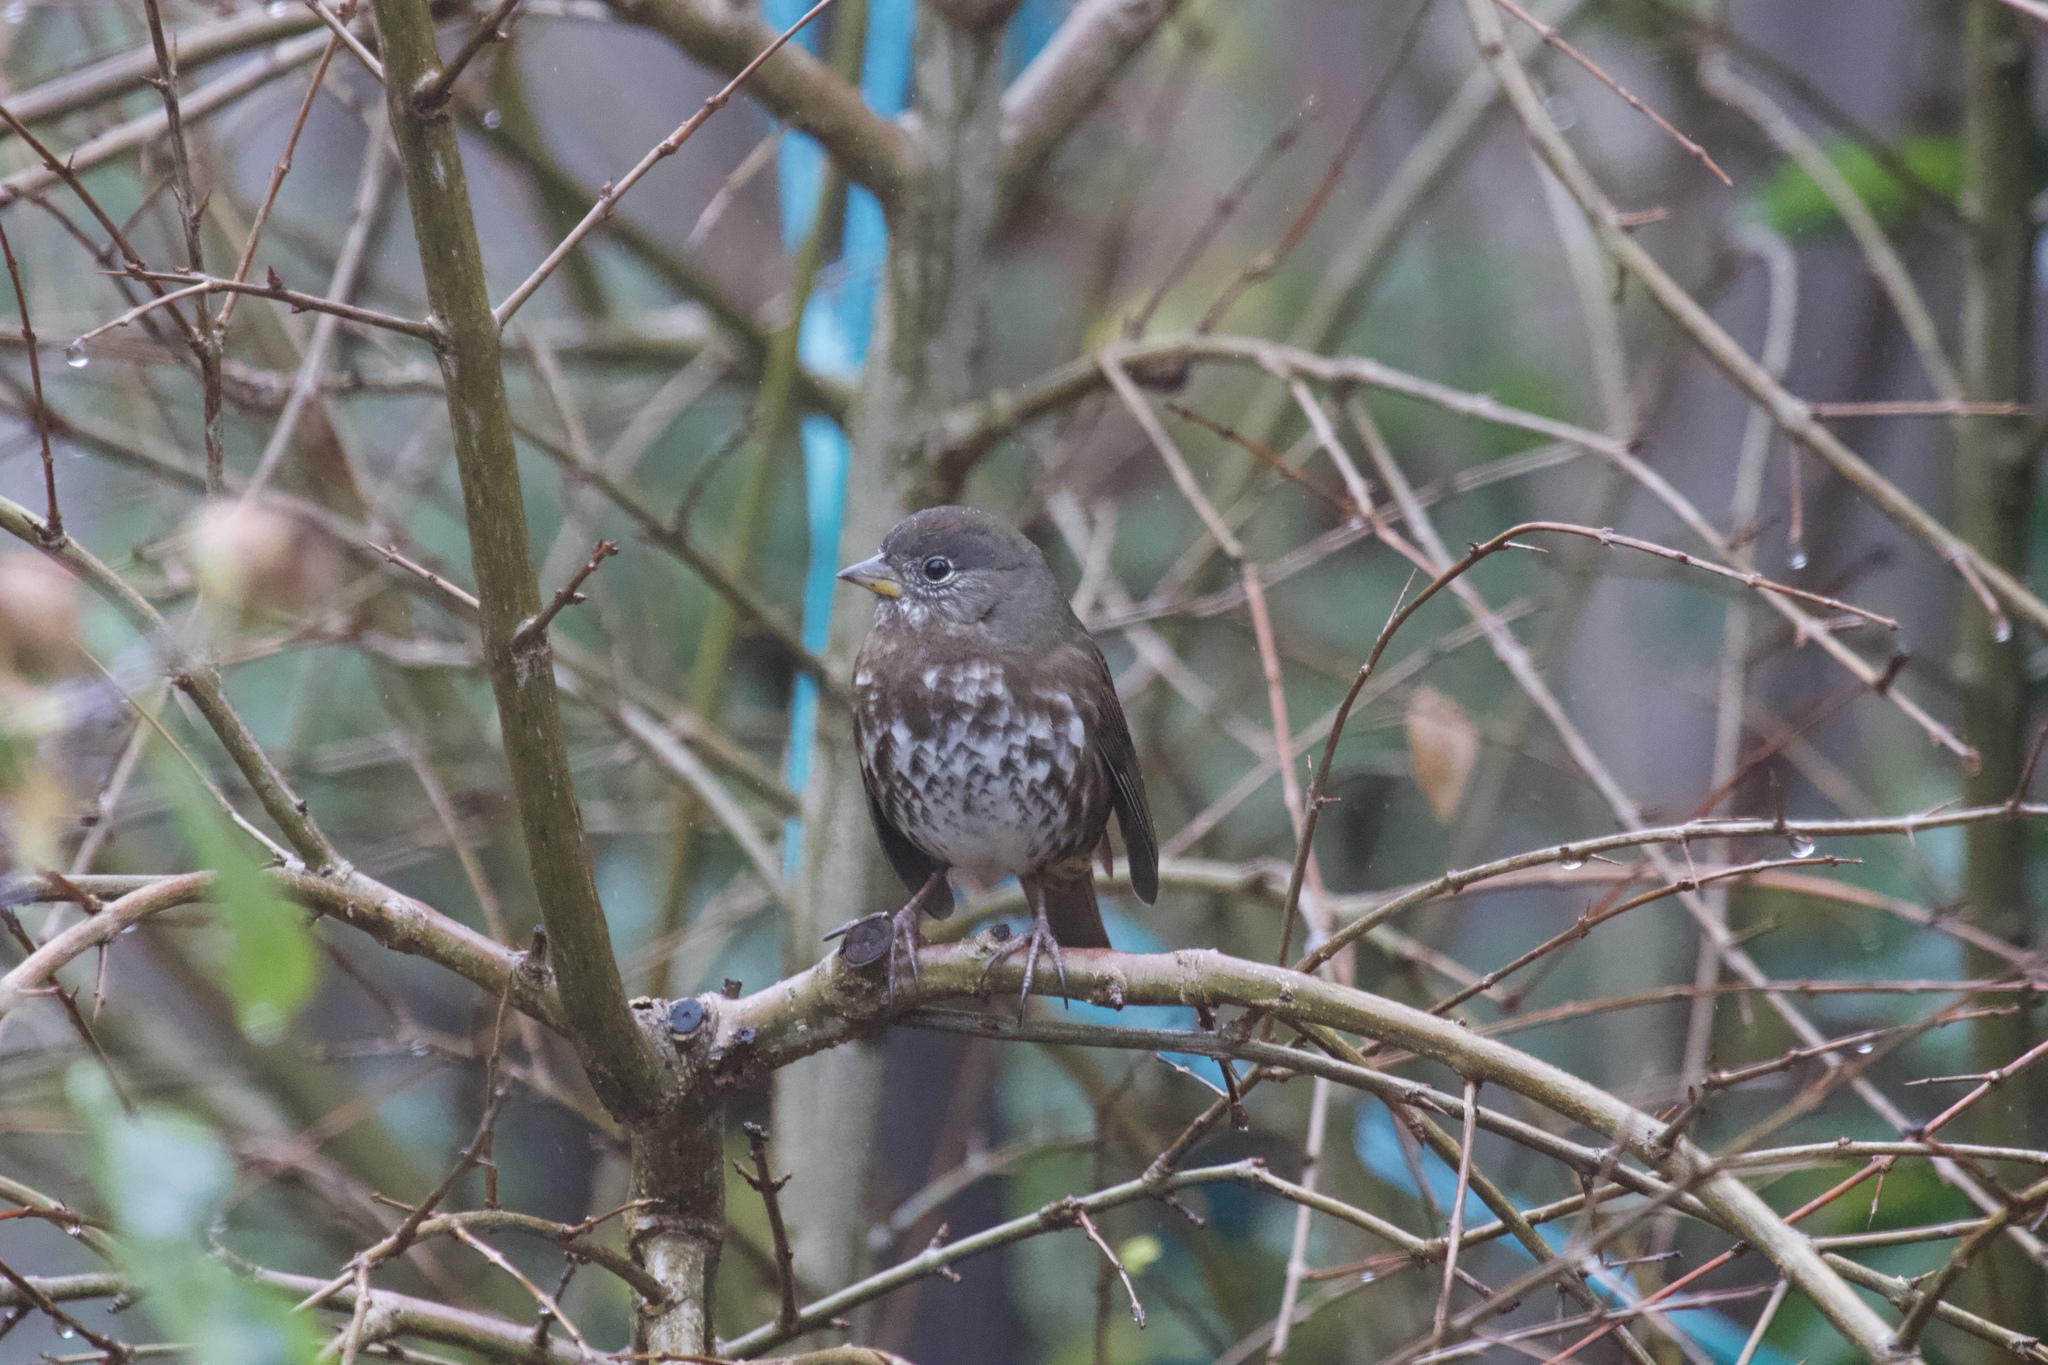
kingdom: Animalia
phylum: Chordata
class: Aves
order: Passeriformes
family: Passerellidae
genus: Passerella
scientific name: Passerella iliaca
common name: Fox sparrow
